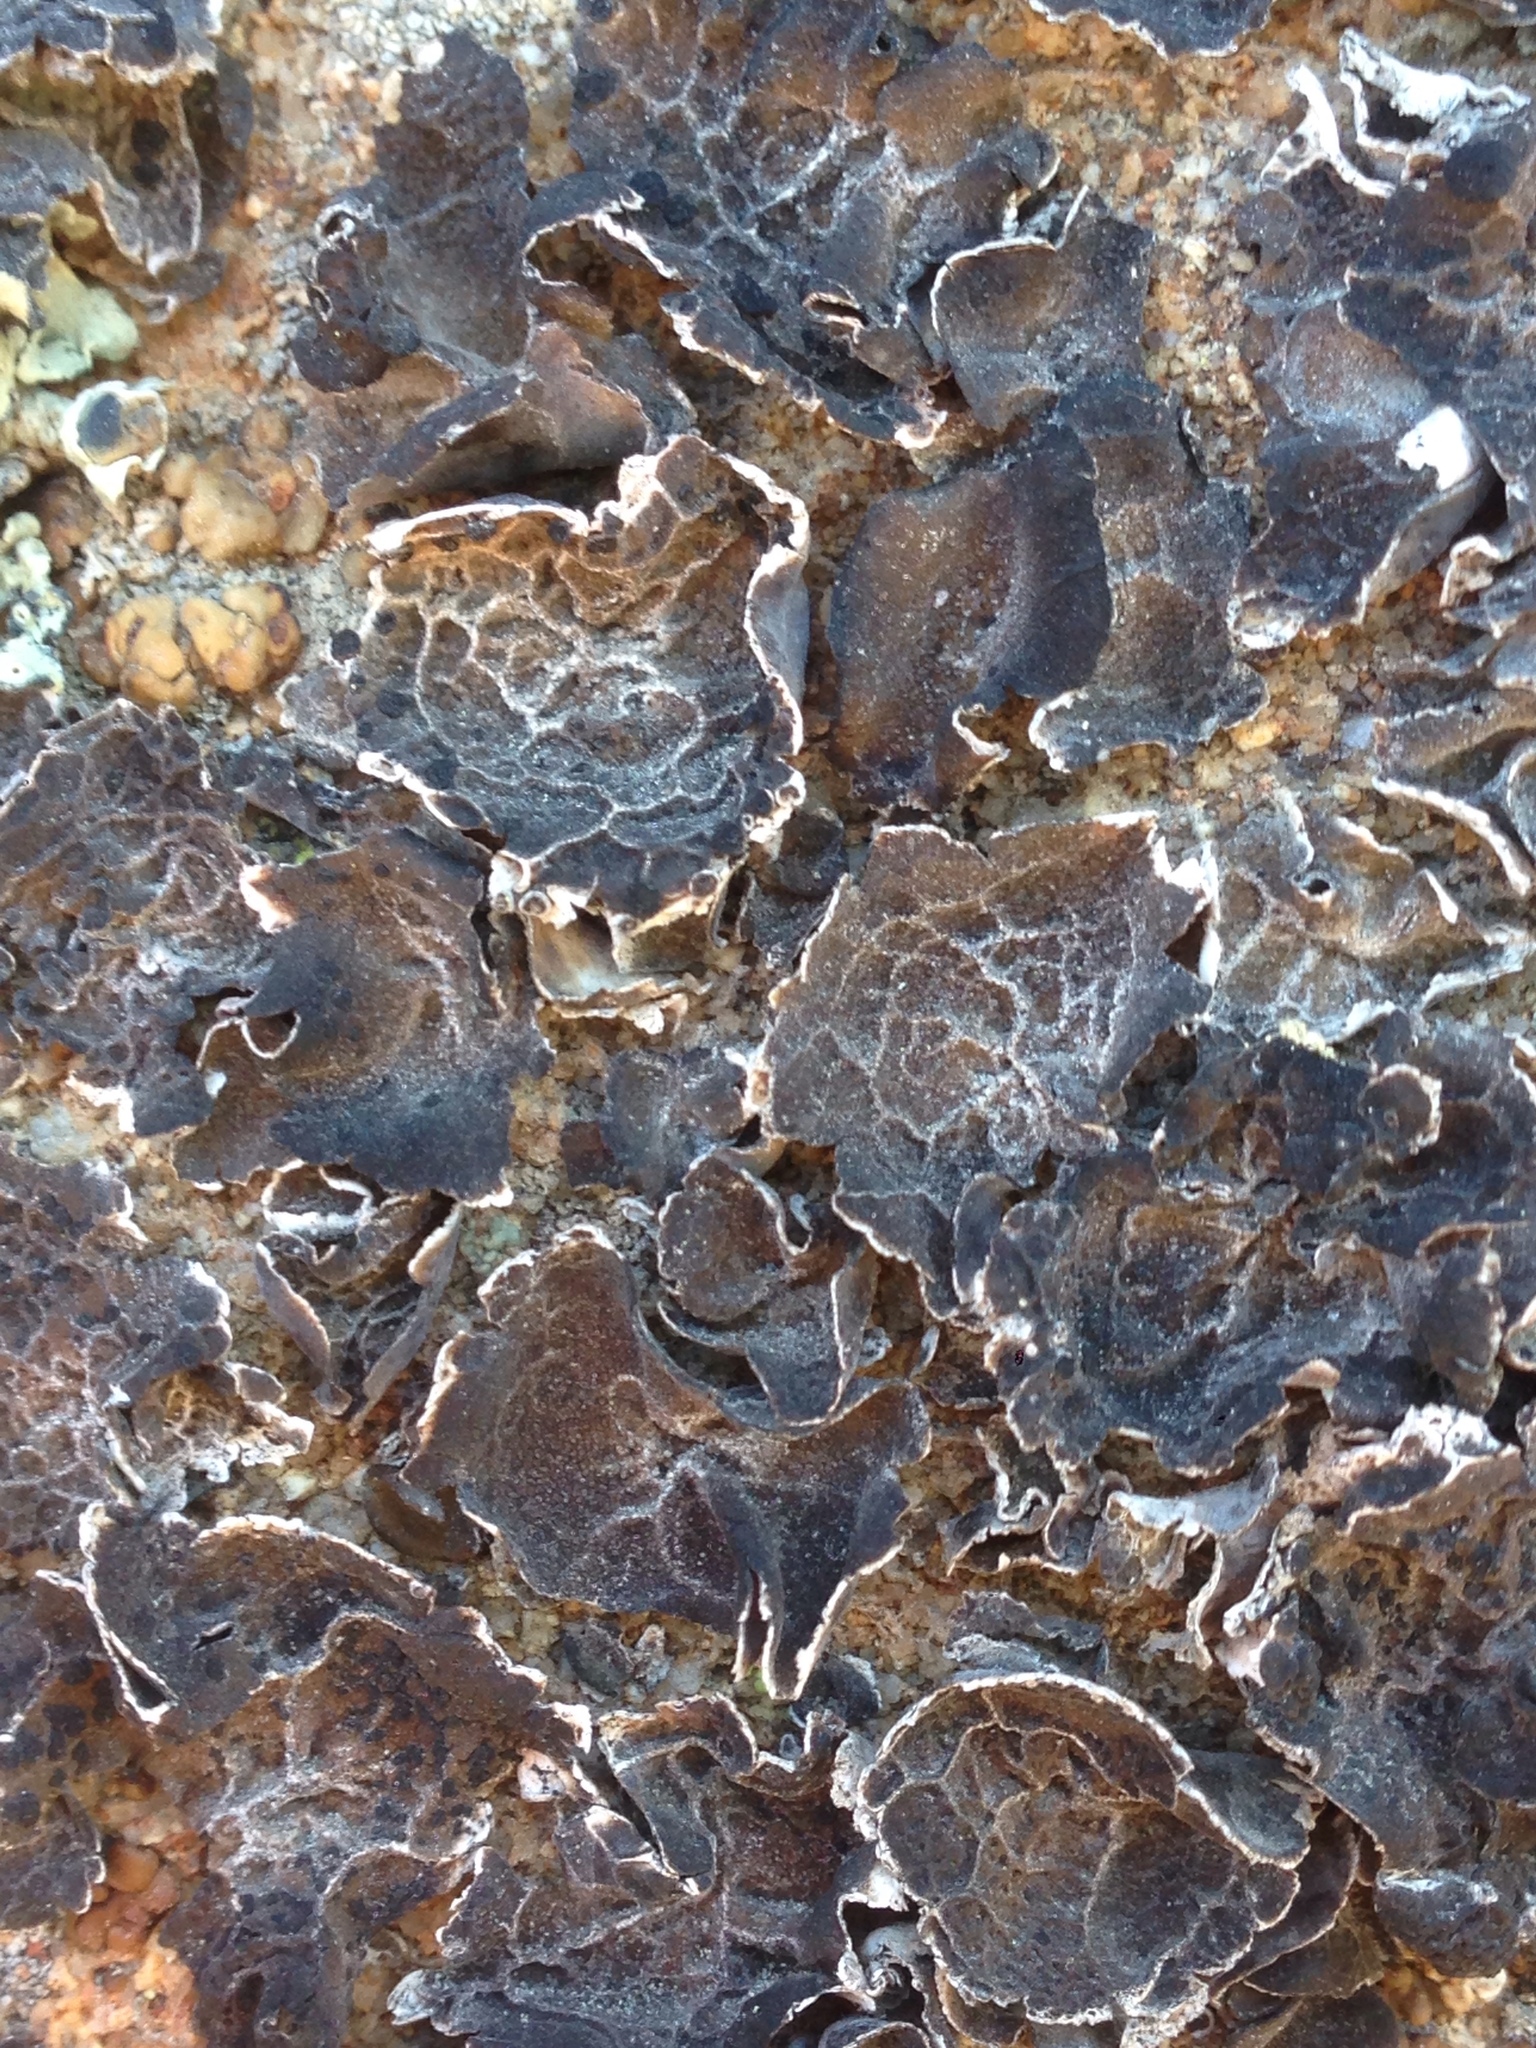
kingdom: Fungi
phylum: Ascomycota
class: Lecanoromycetes
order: Umbilicariales
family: Umbilicariaceae
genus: Umbilicaria
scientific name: Umbilicaria krascheninnikovii
